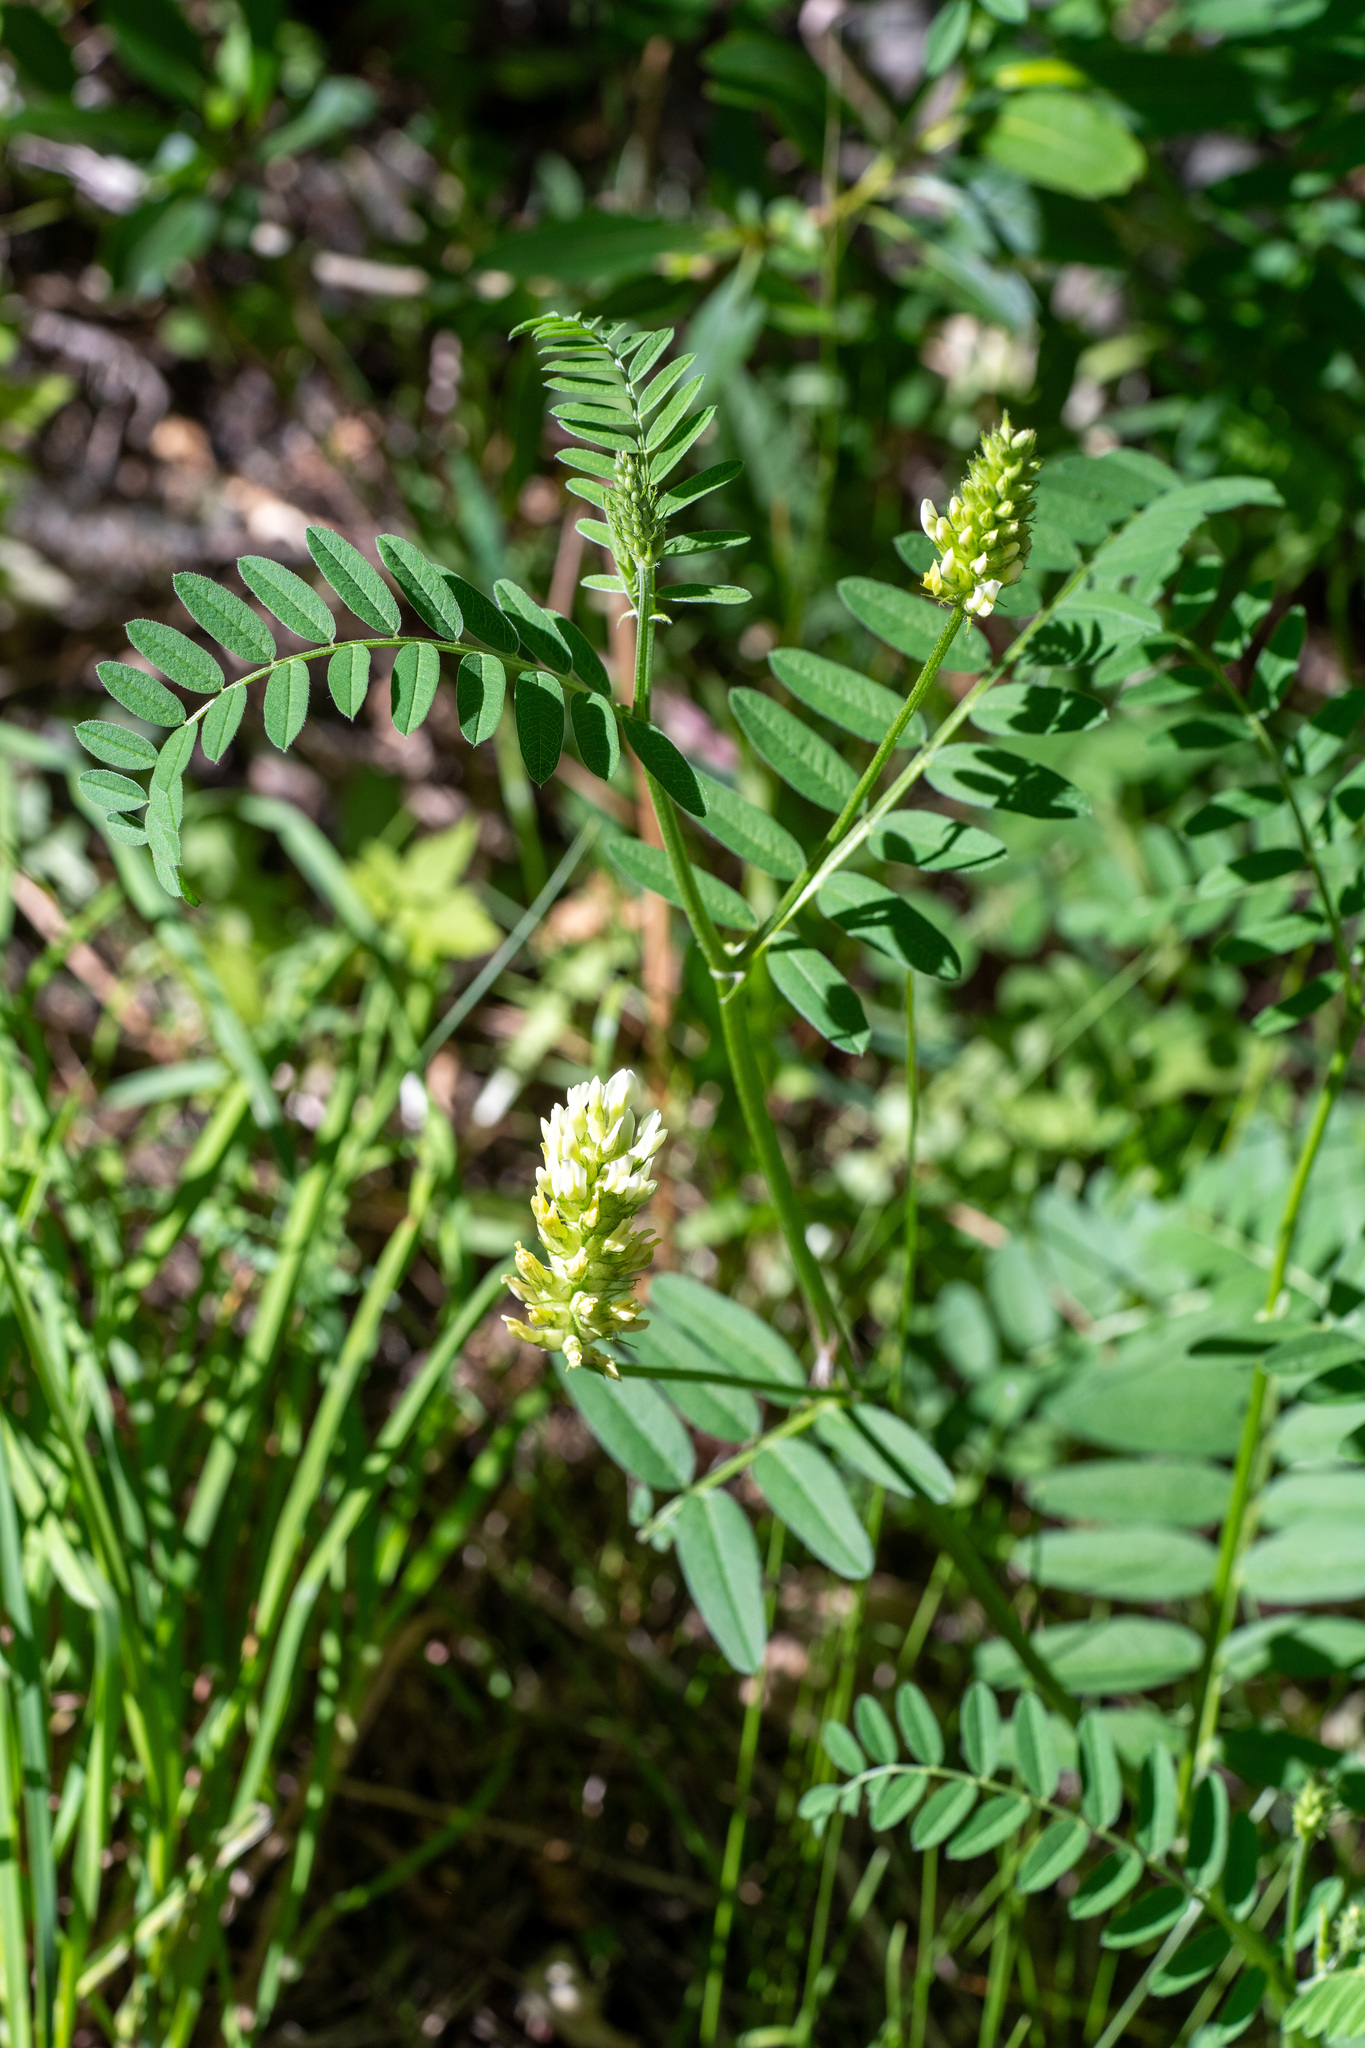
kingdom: Plantae
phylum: Tracheophyta
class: Magnoliopsida
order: Fabales
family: Fabaceae
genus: Astragalus
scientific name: Astragalus cicer
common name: Chick-pea milk-vetch
